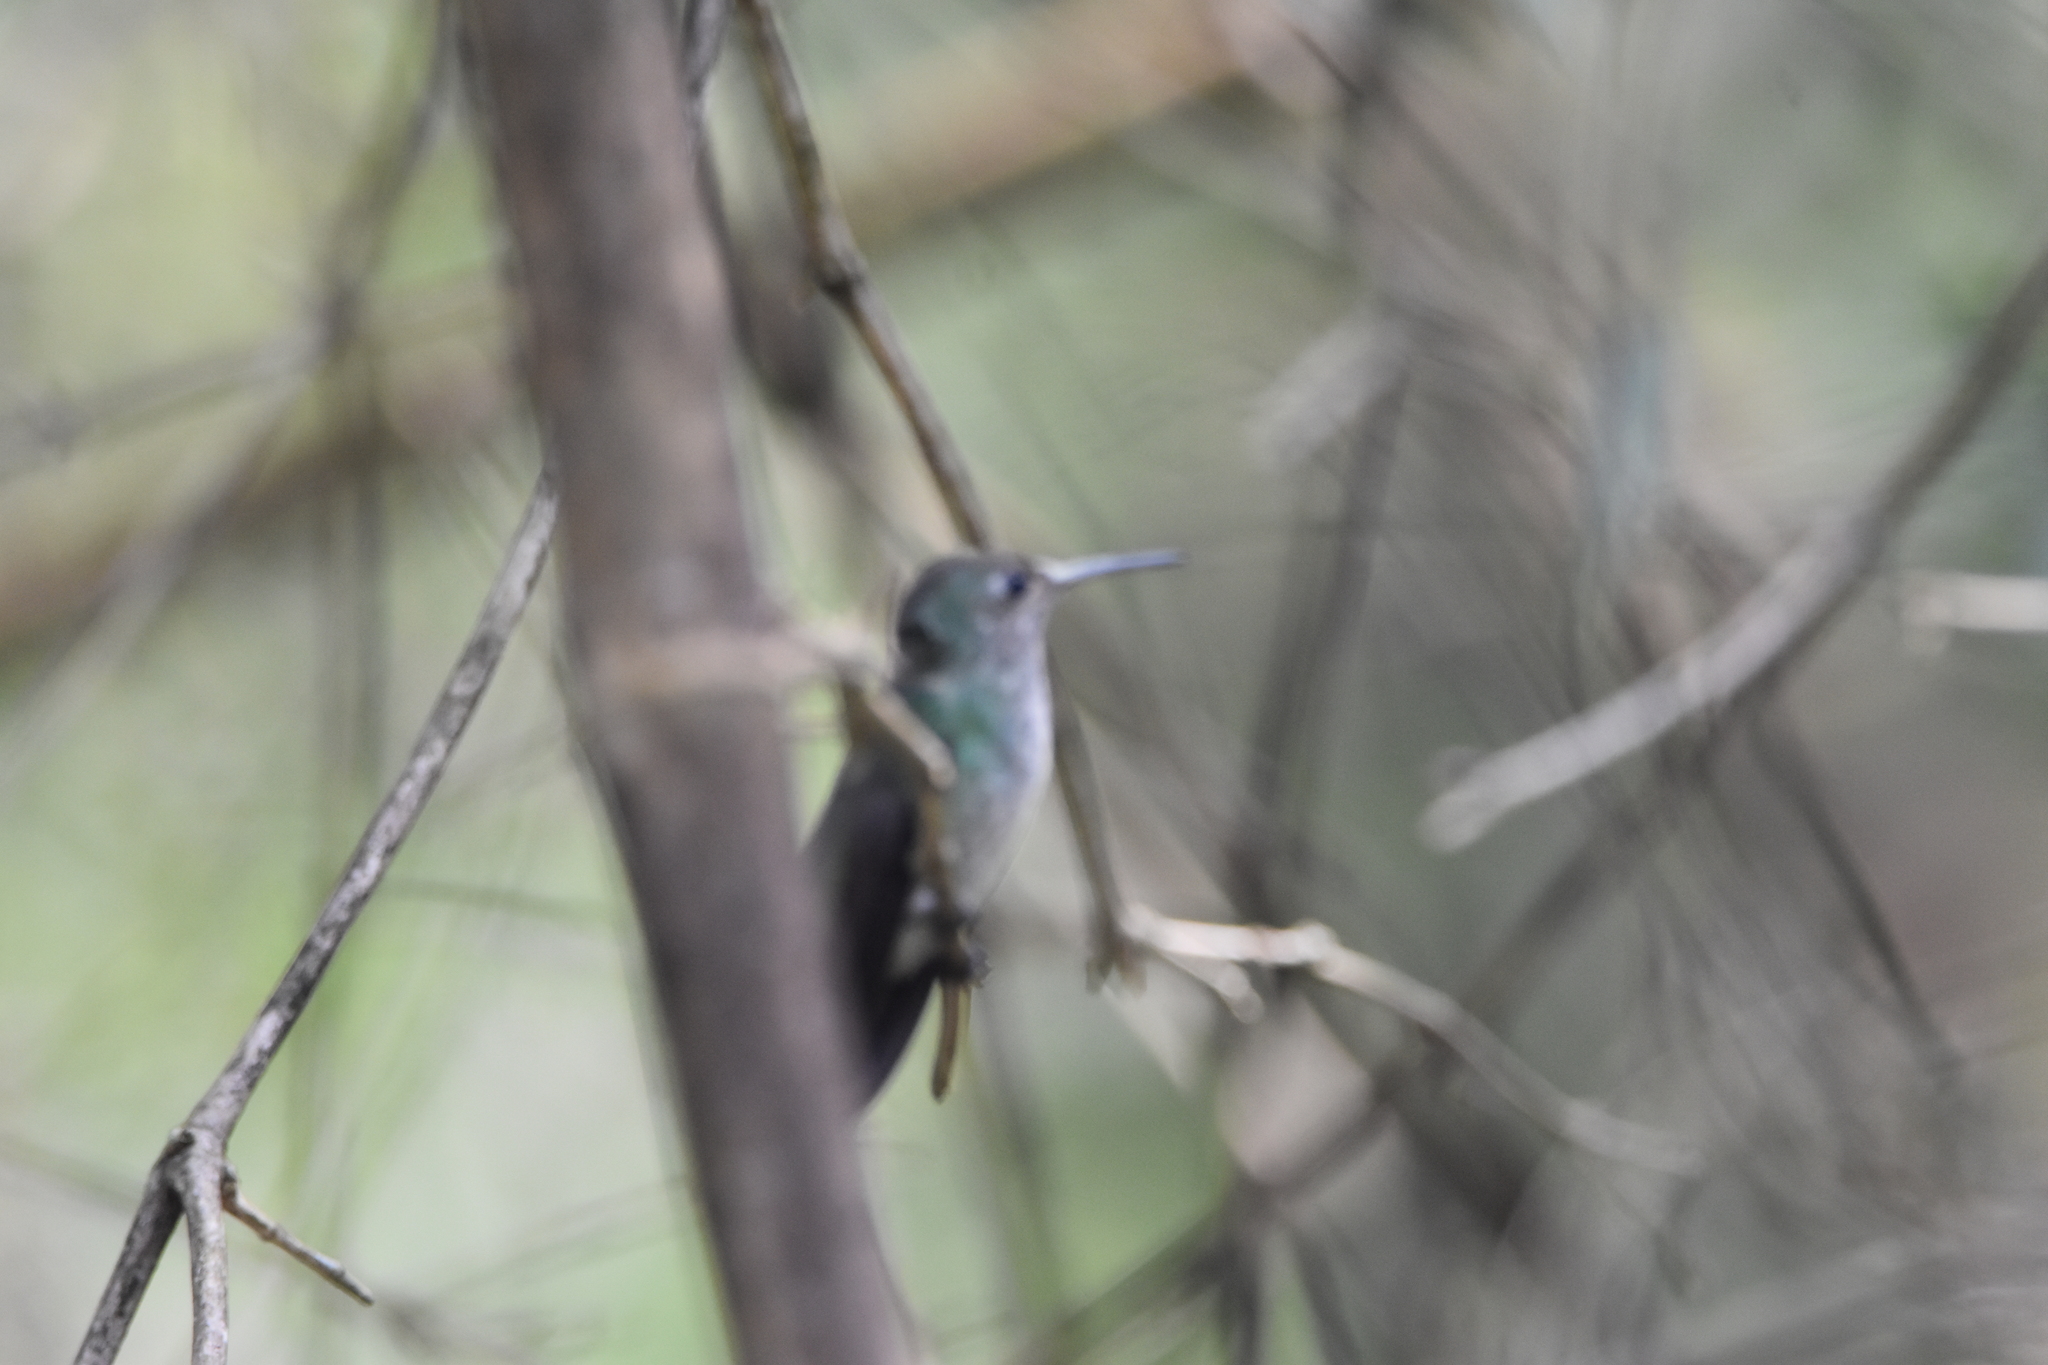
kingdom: Animalia
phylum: Chordata
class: Aves
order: Apodiformes
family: Trochilidae
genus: Chrysuronia
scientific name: Chrysuronia versicolor
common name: Versicolored emerald
